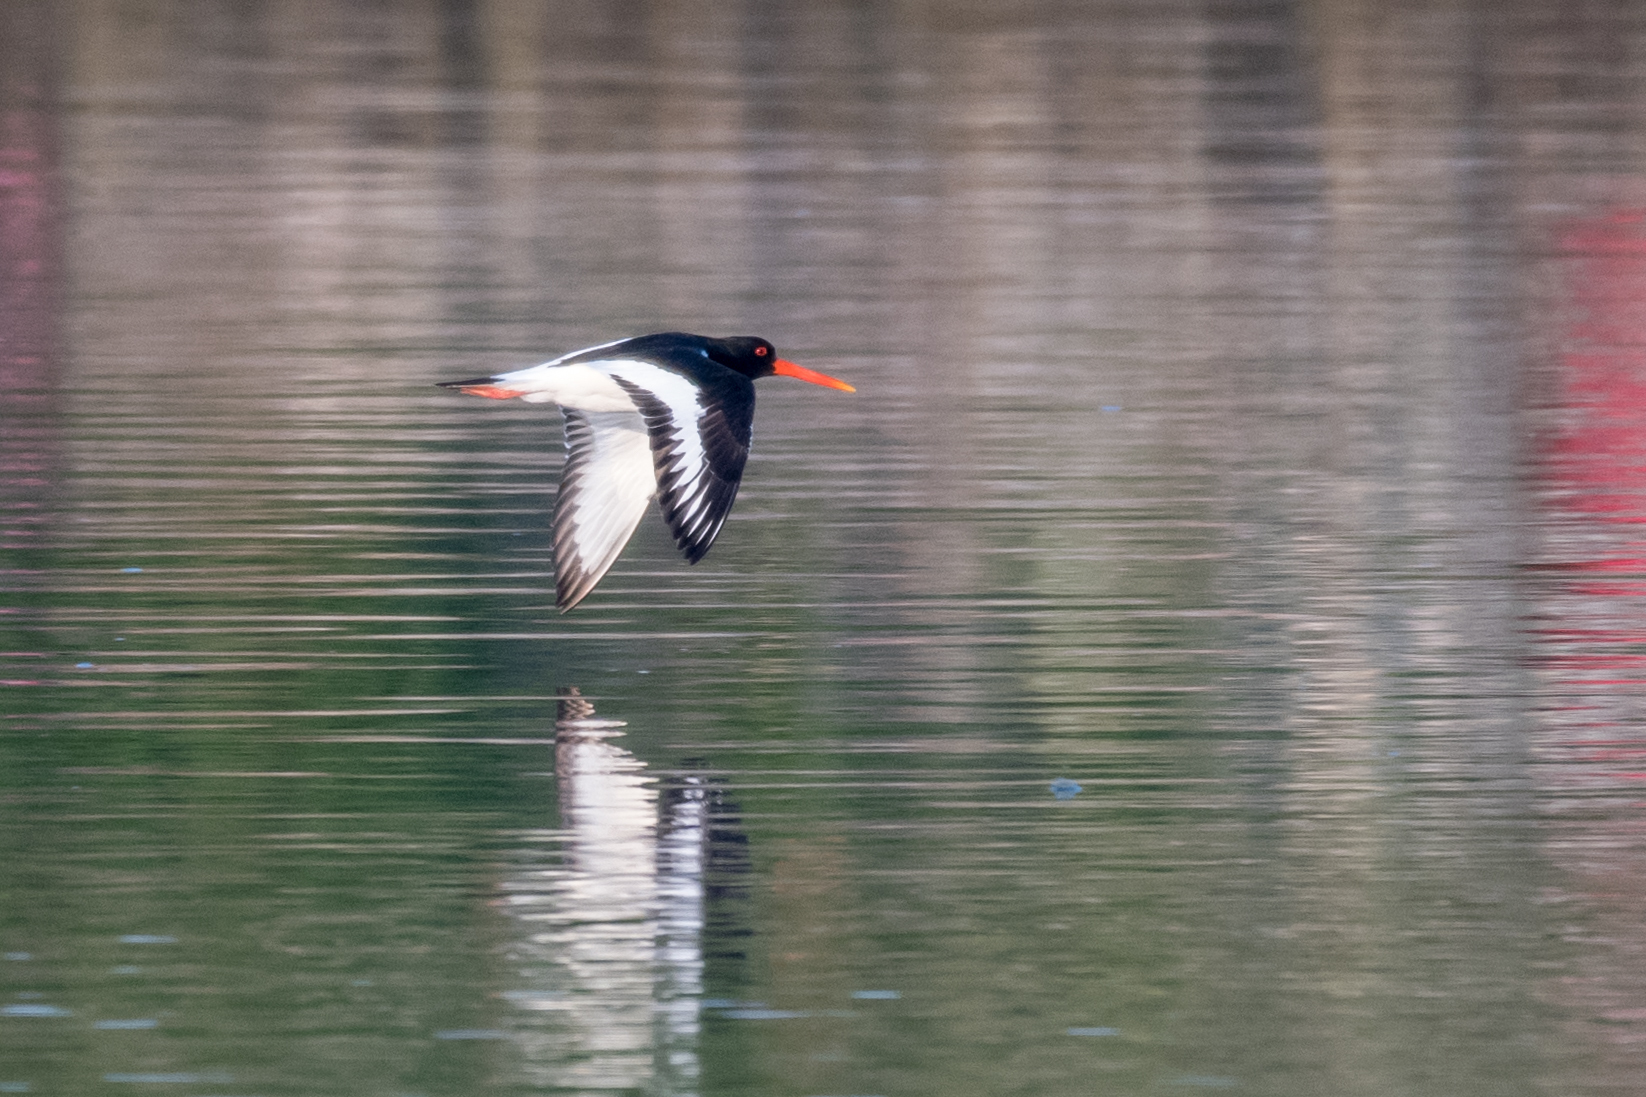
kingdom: Animalia
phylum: Chordata
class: Aves
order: Charadriiformes
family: Haematopodidae
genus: Haematopus
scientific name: Haematopus ostralegus
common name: Eurasian oystercatcher
